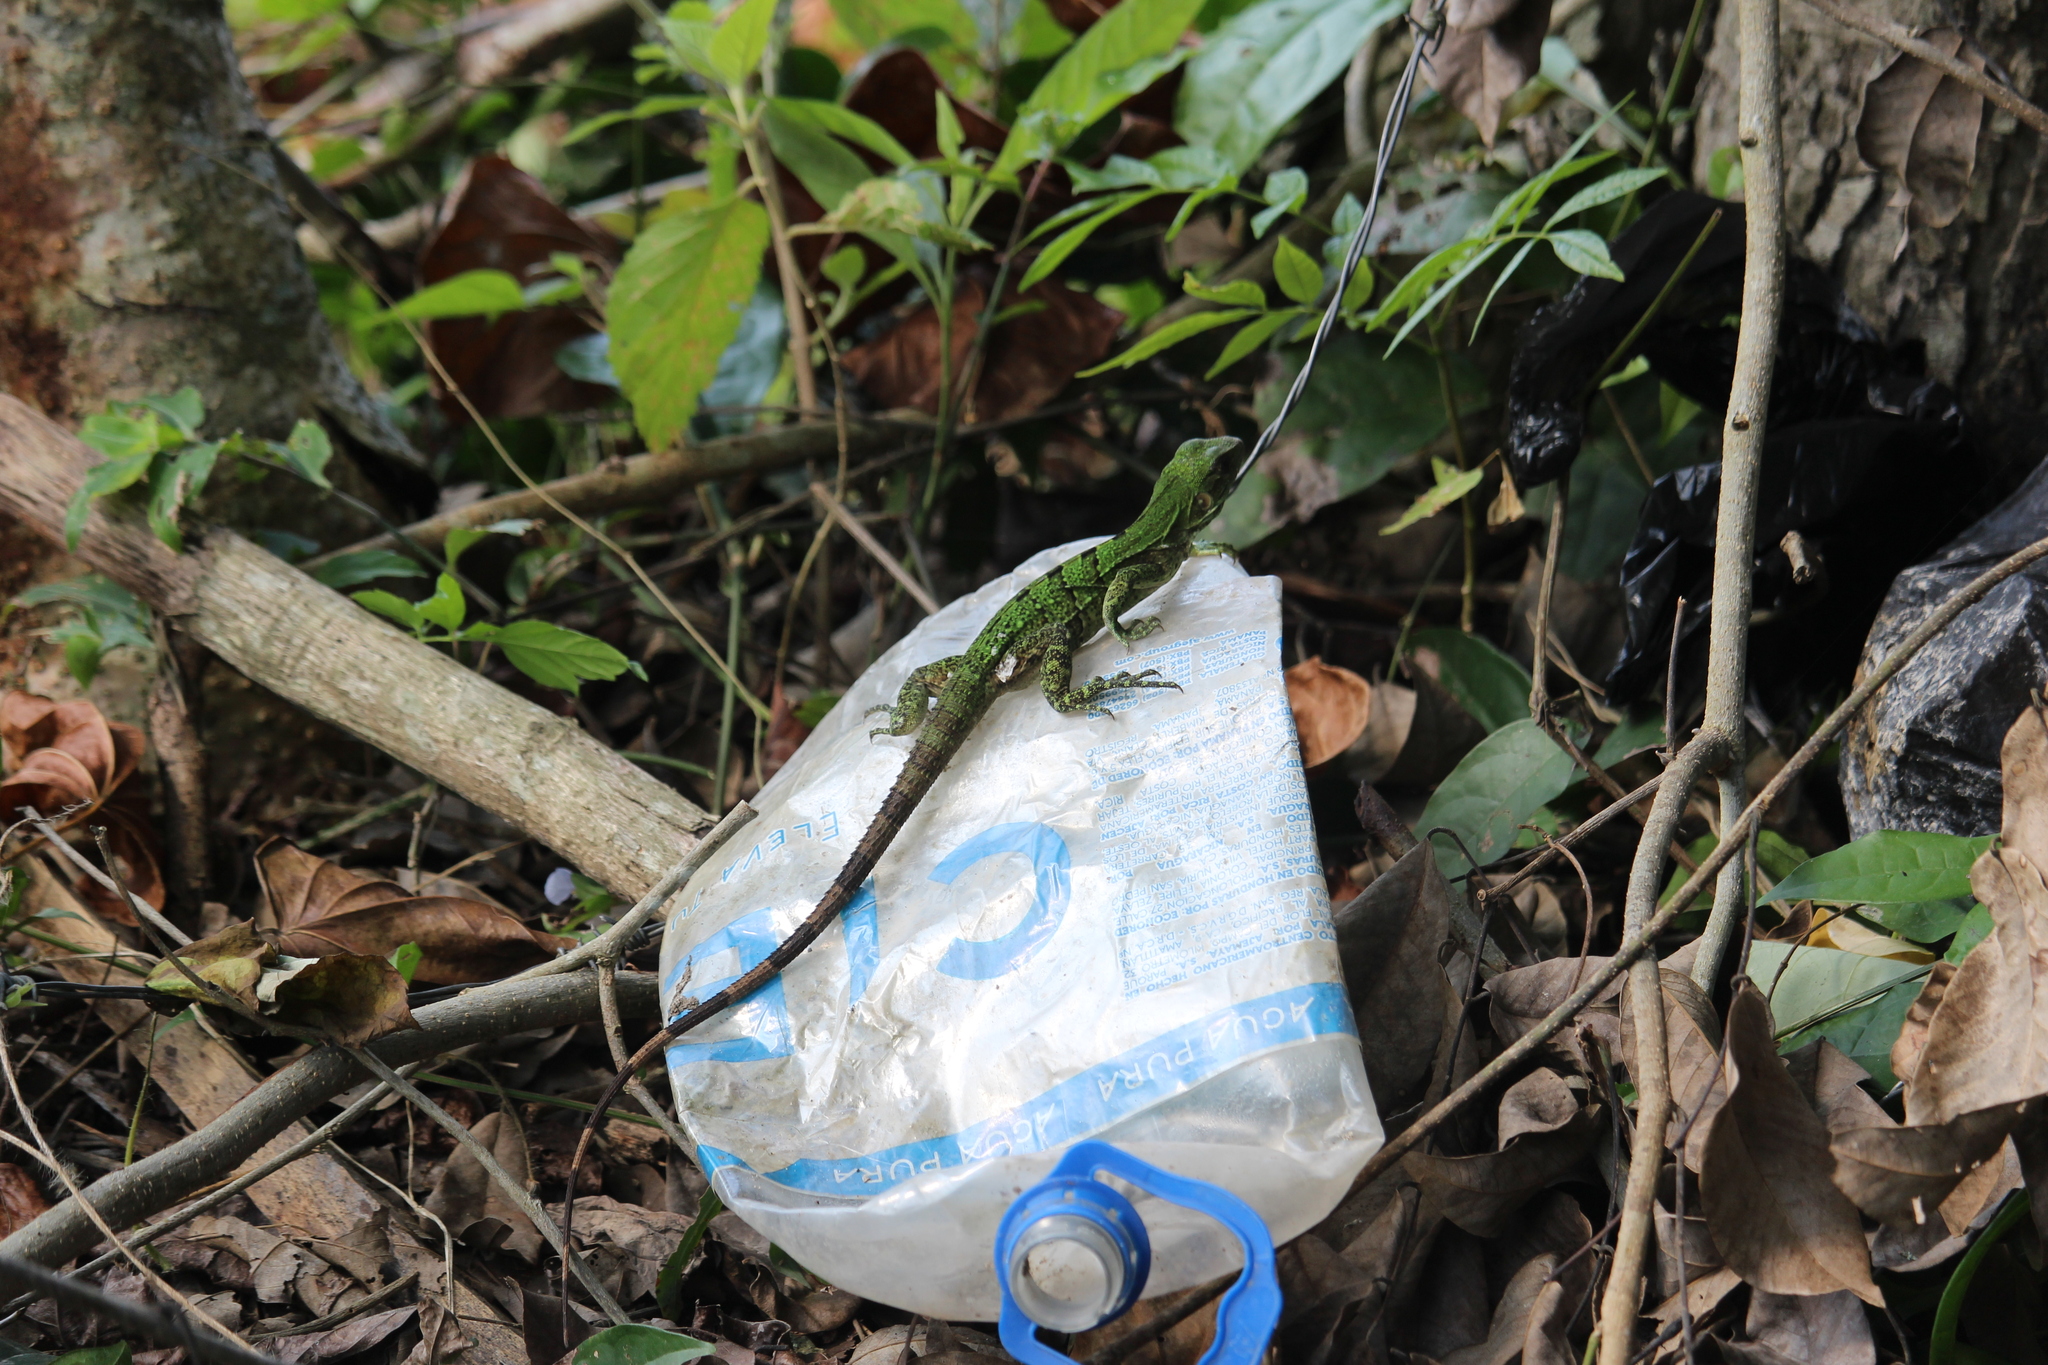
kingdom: Animalia
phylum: Chordata
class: Squamata
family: Iguanidae
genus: Ctenosaura
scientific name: Ctenosaura similis
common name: Black spiny-tailed iguana
